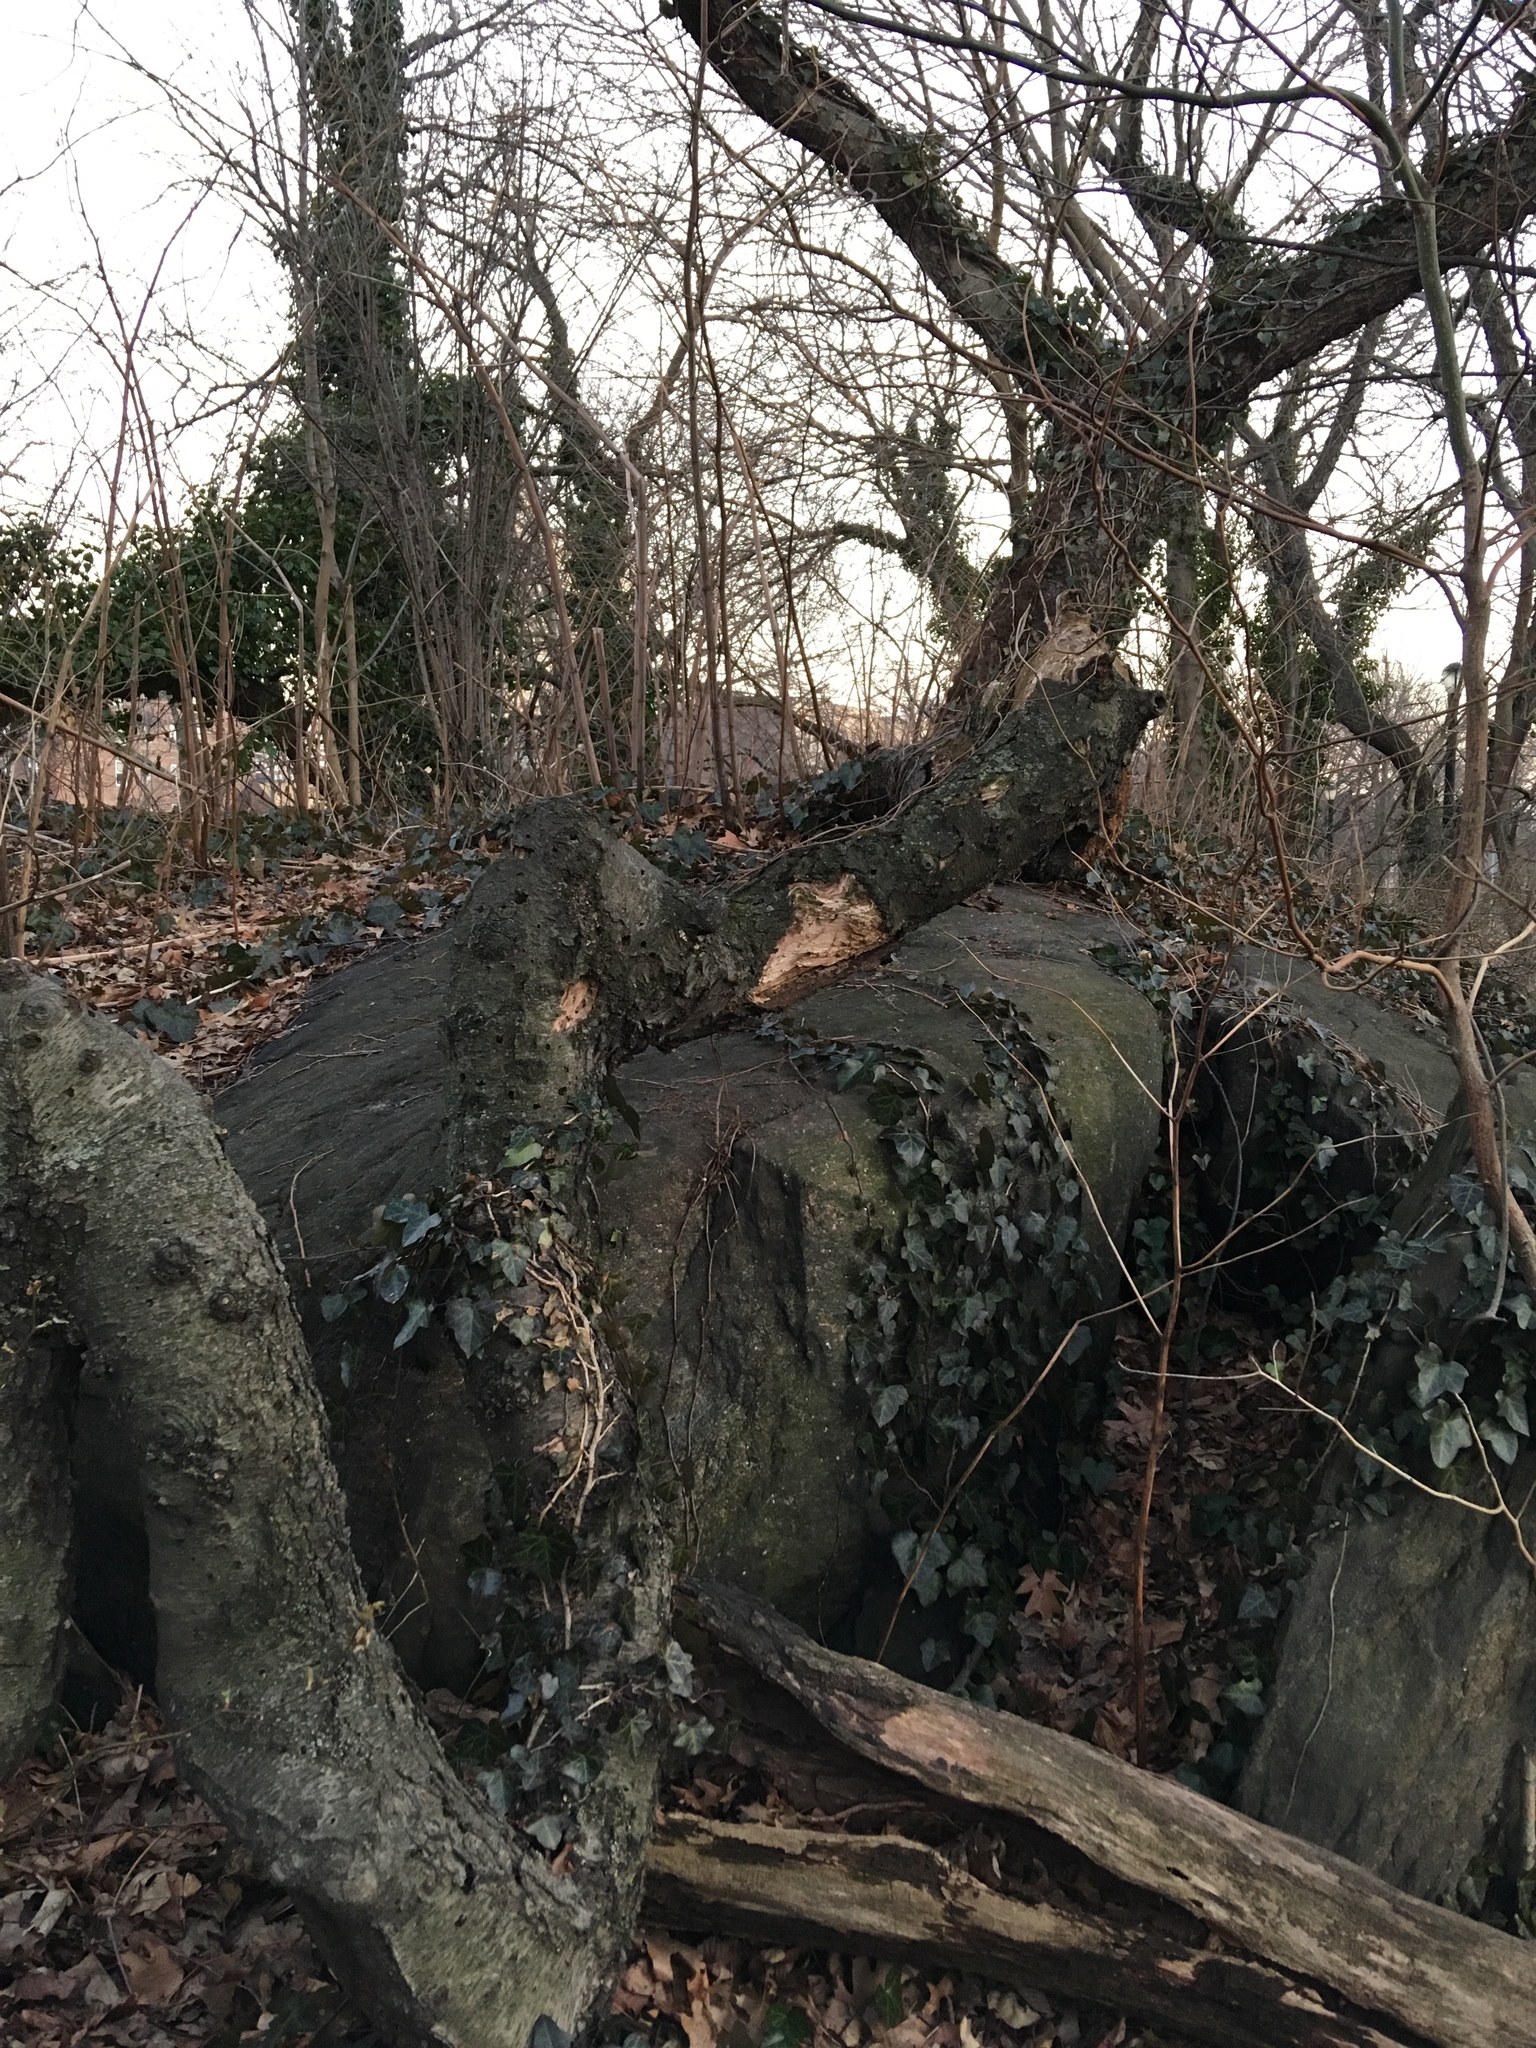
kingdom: Plantae
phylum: Tracheophyta
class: Magnoliopsida
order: Apiales
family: Araliaceae
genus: Hedera
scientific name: Hedera helix
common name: Ivy
